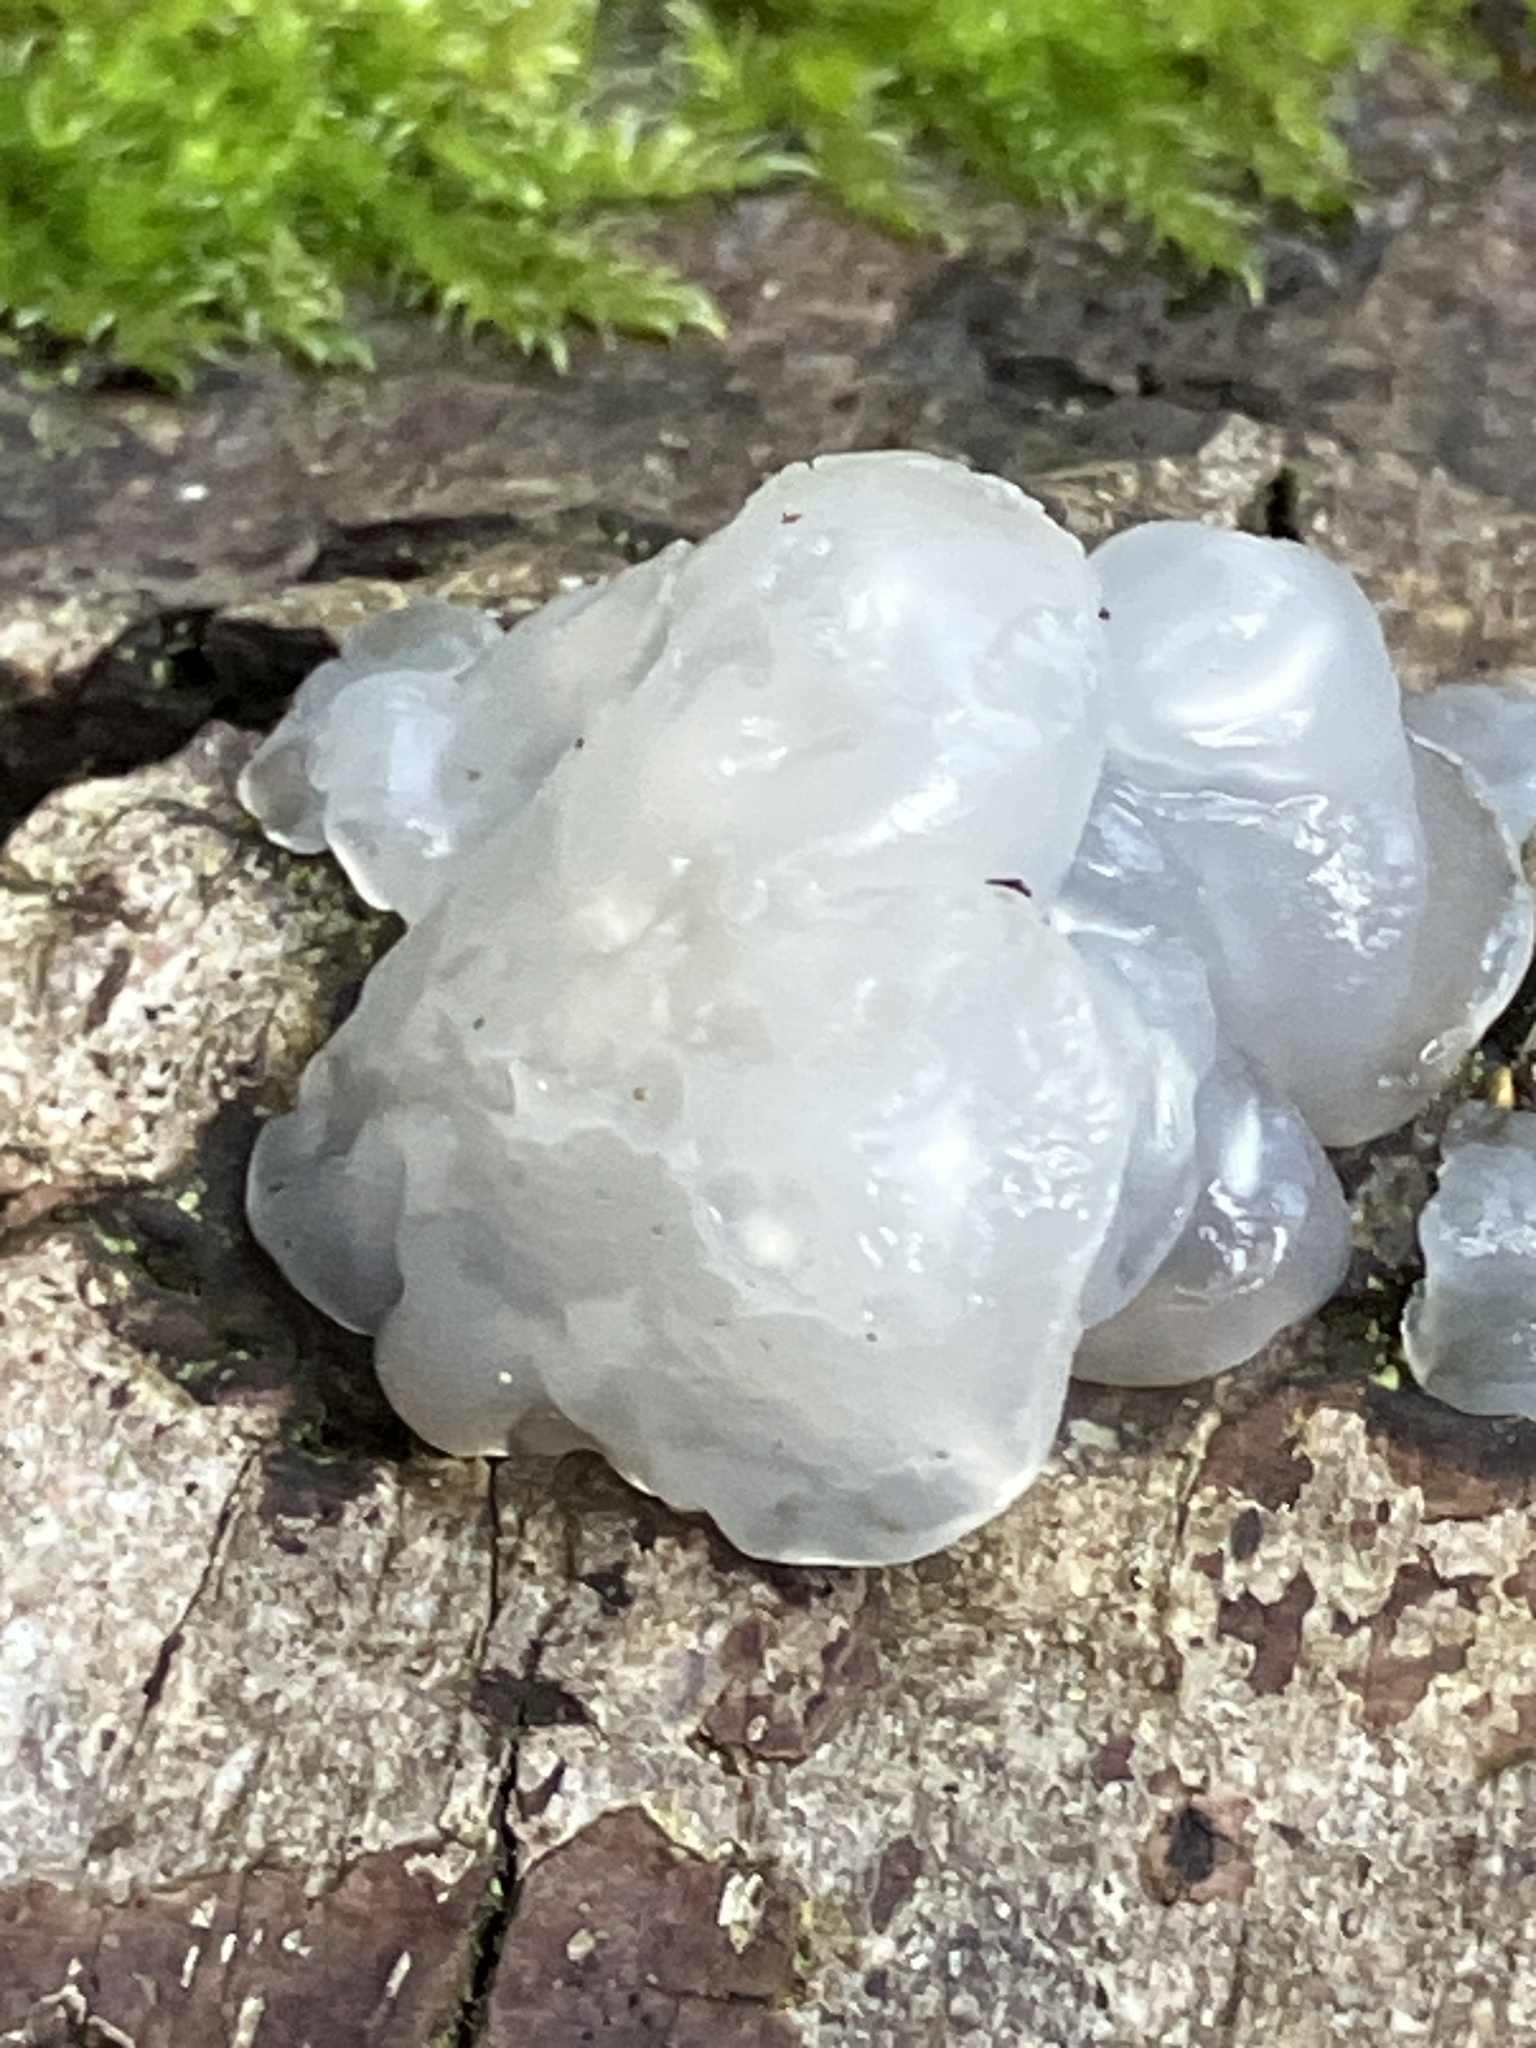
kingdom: Fungi
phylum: Basidiomycota
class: Agaricomycetes
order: Auriculariales
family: Hyaloriaceae
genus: Myxarium
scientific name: Myxarium nucleatum
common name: Crystal brain fungus
